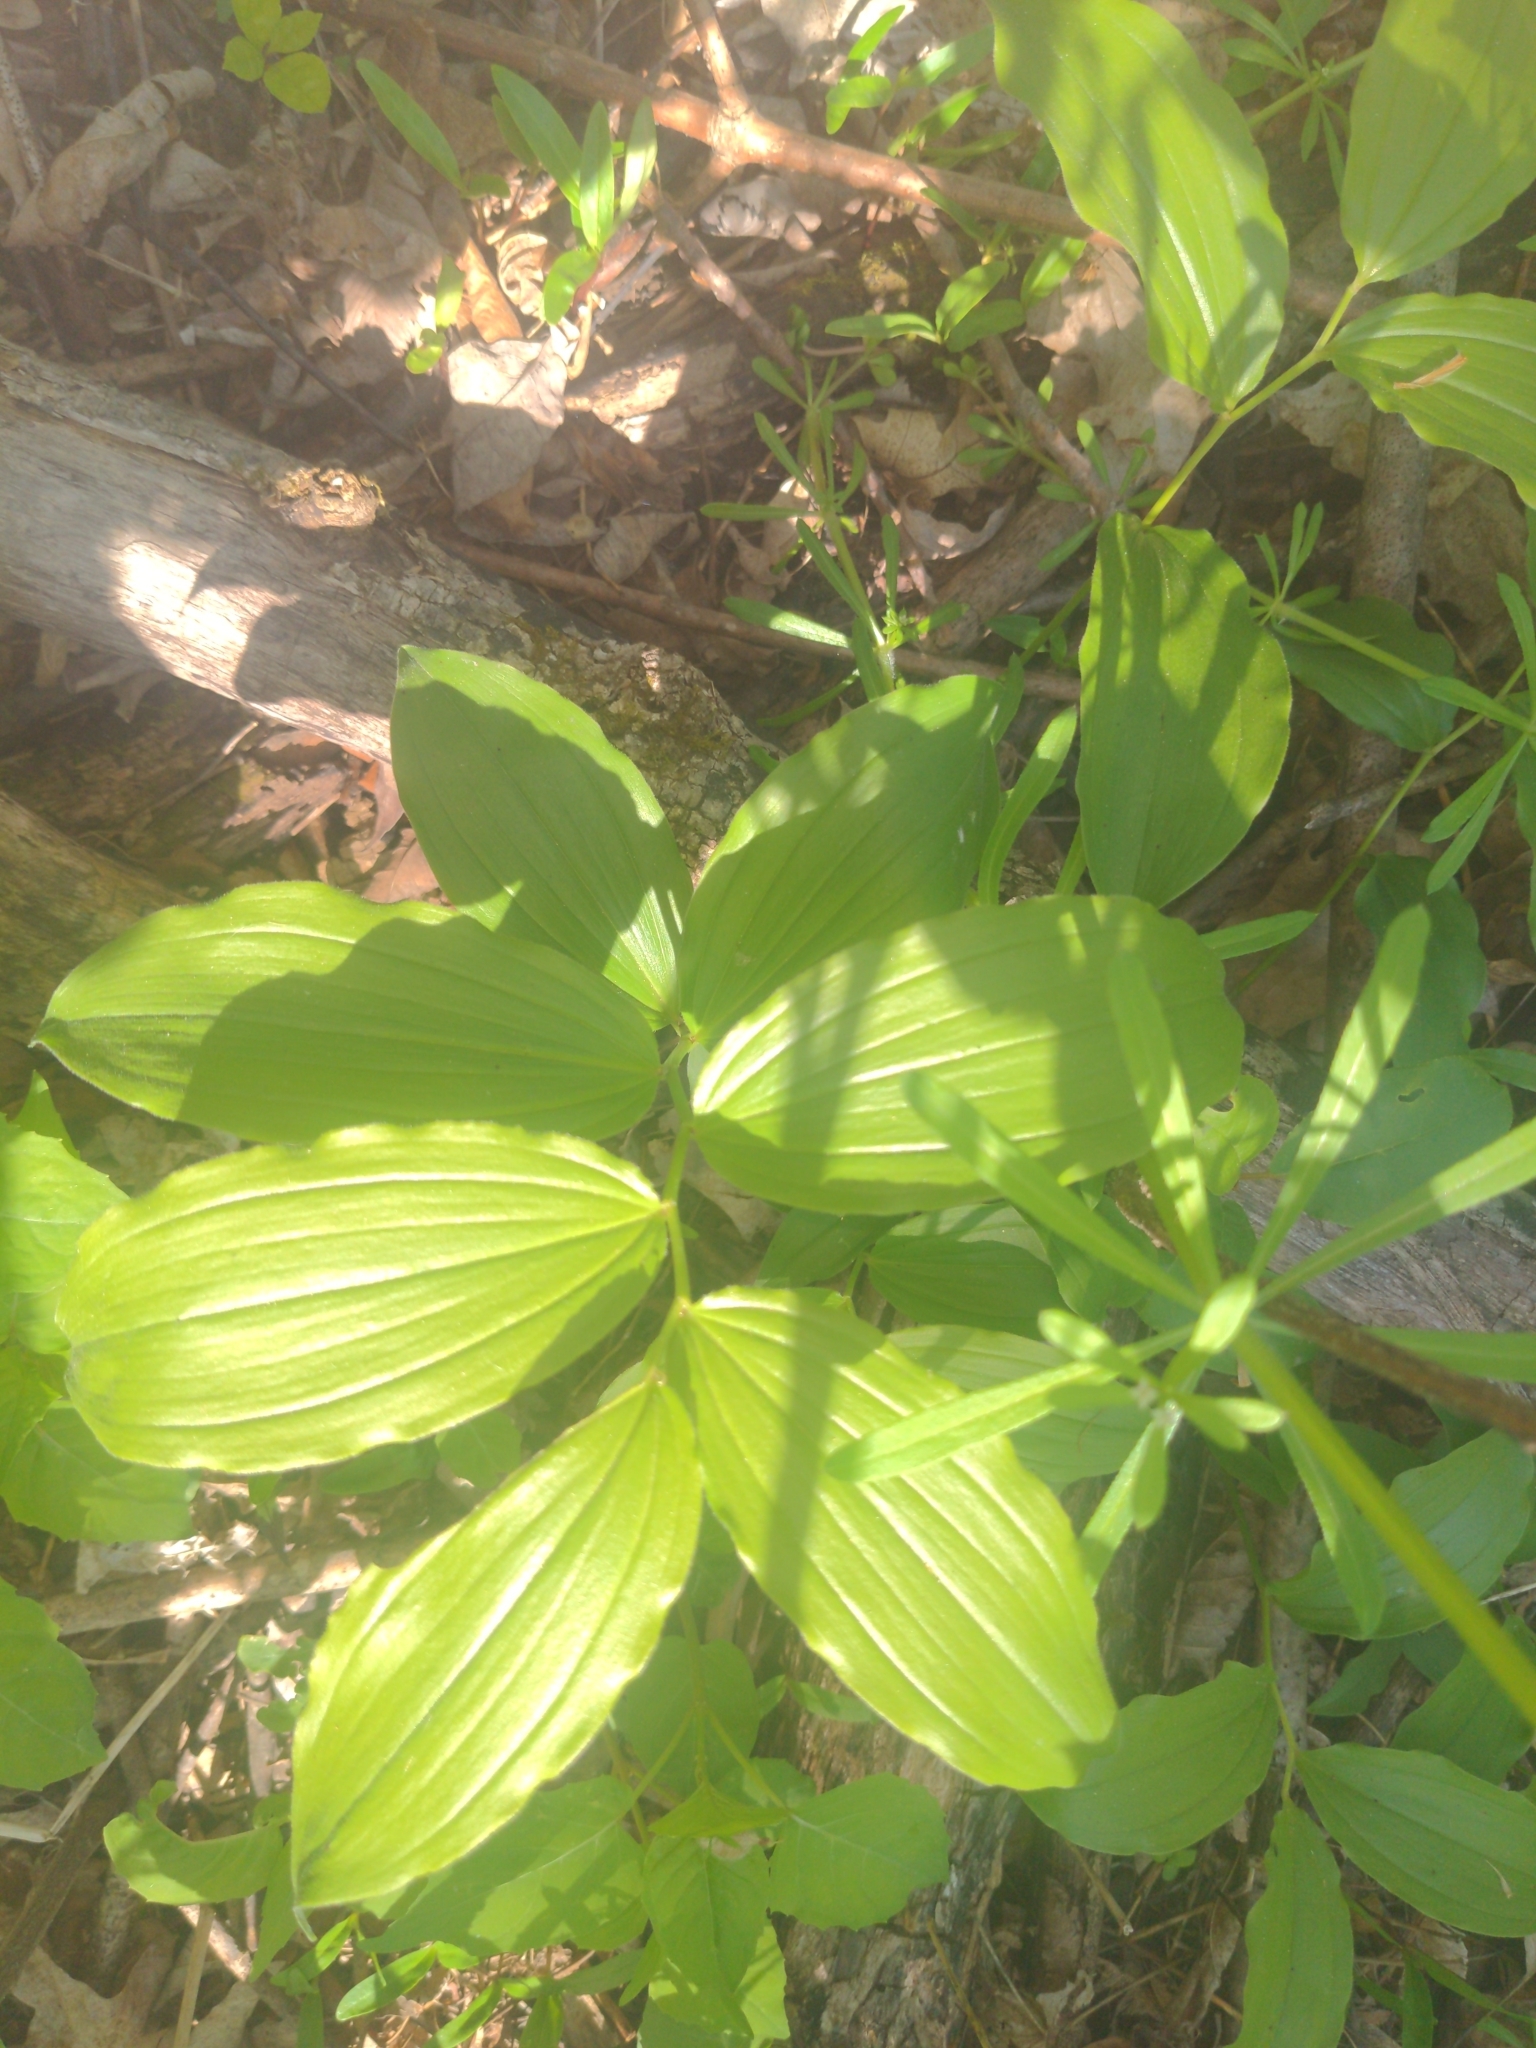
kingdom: Plantae
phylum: Tracheophyta
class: Liliopsida
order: Asparagales
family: Asparagaceae
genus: Maianthemum
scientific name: Maianthemum racemosum
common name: False spikenard
